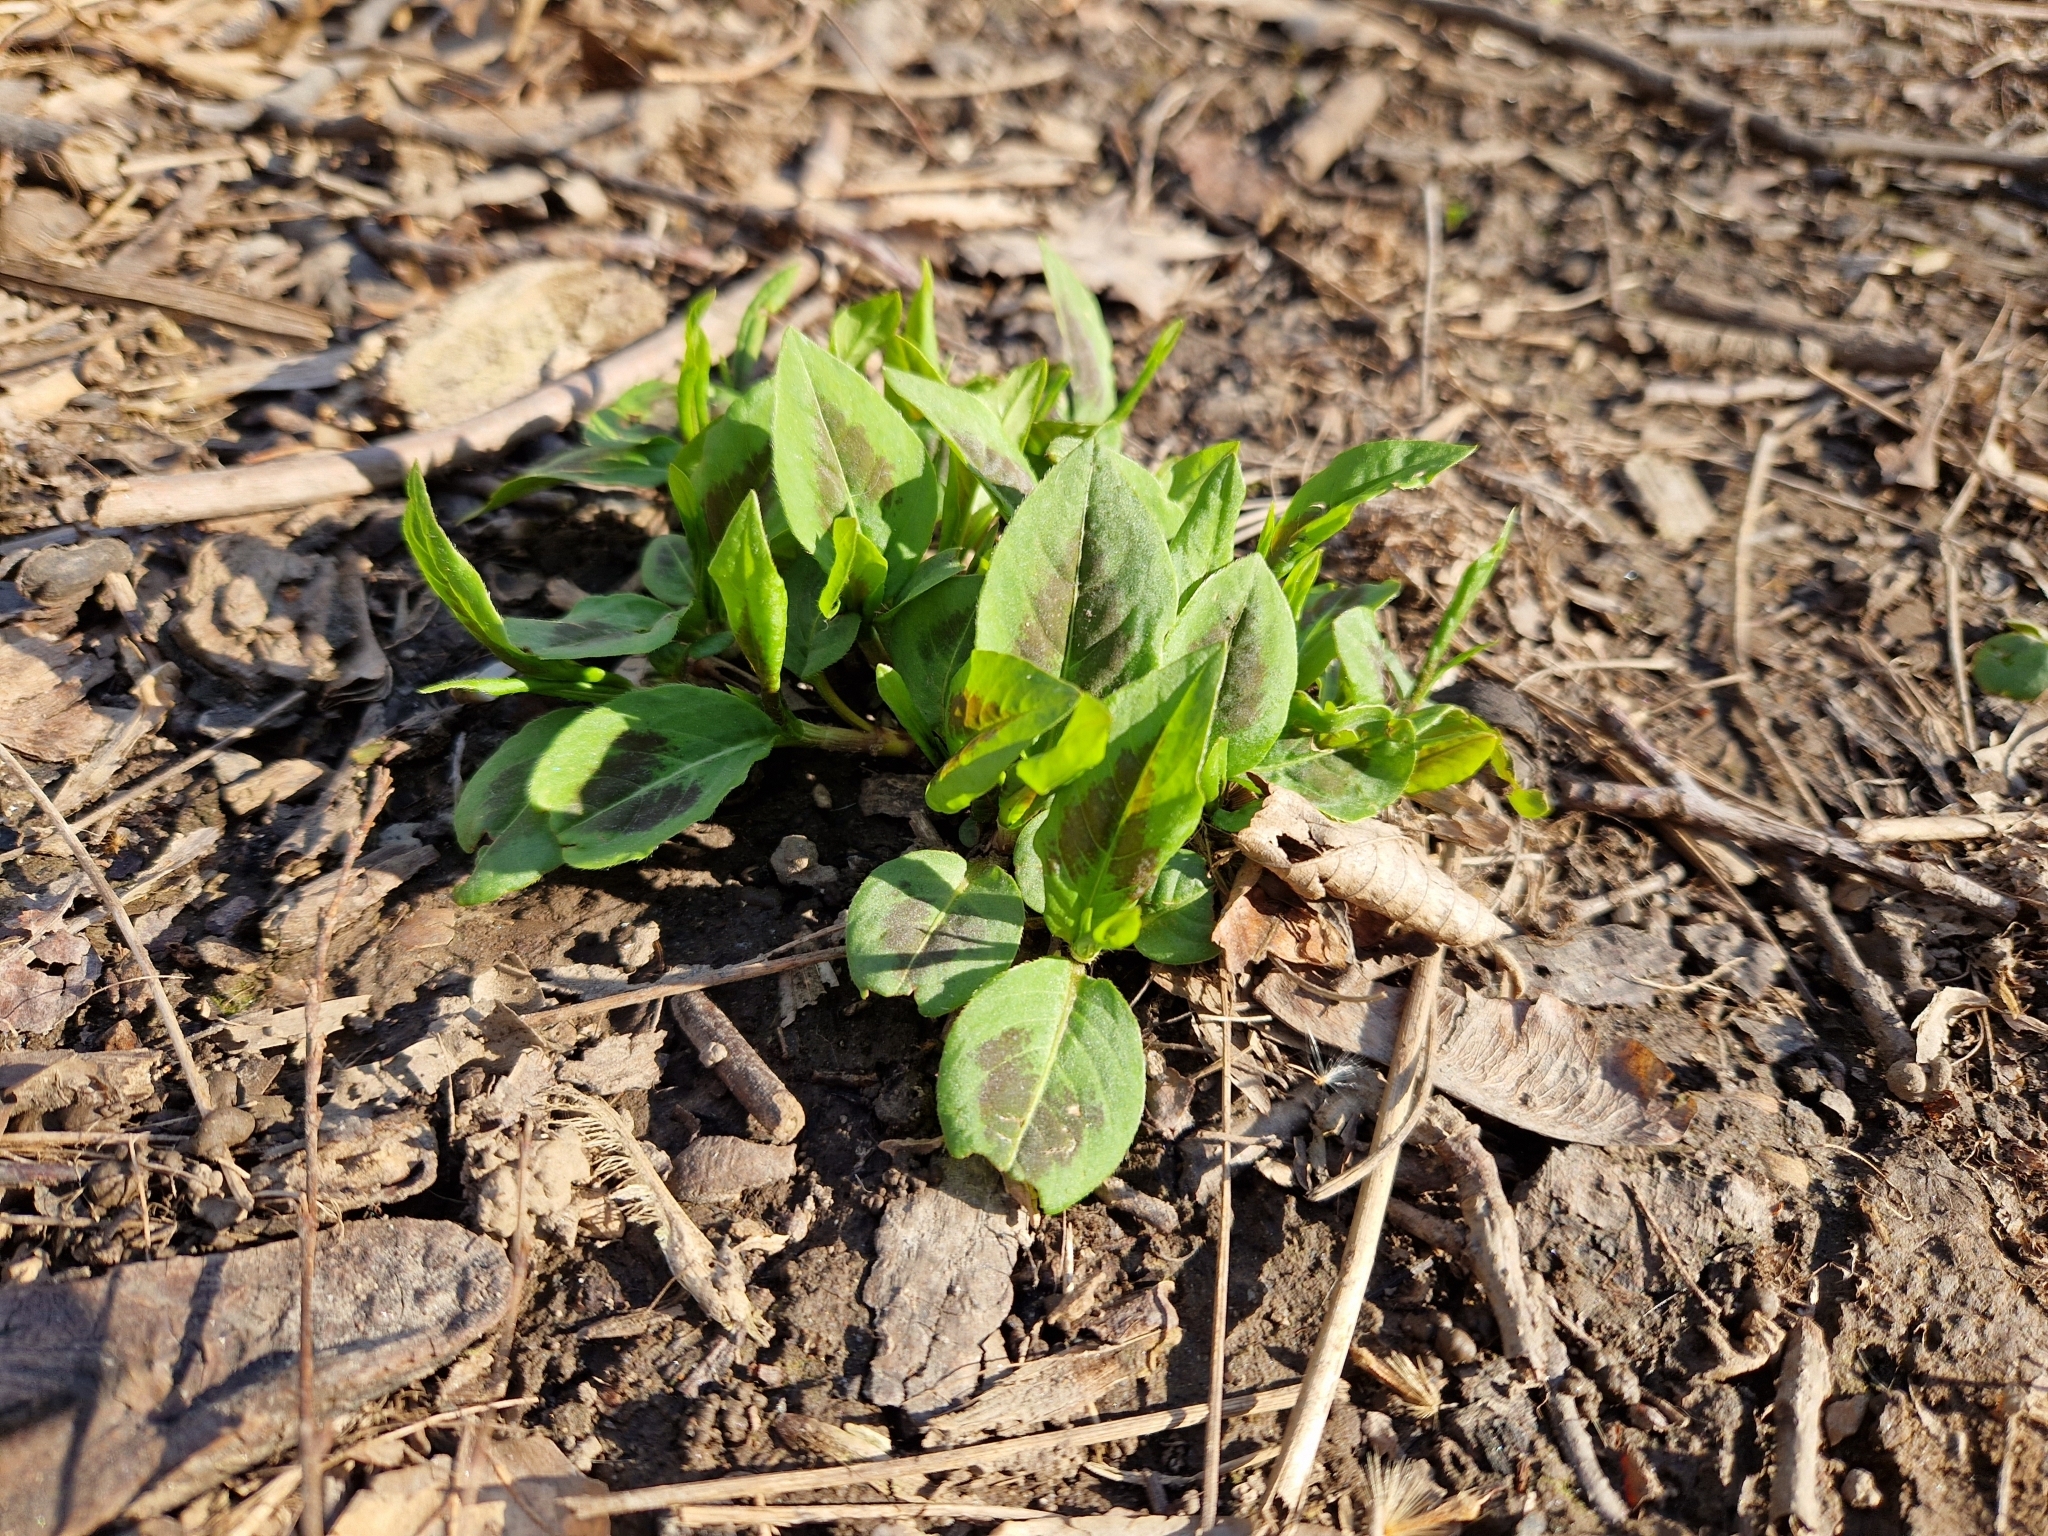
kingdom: Plantae
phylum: Tracheophyta
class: Magnoliopsida
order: Caryophyllales
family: Polygonaceae
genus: Persicaria
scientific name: Persicaria virginiana
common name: Jumpseed
